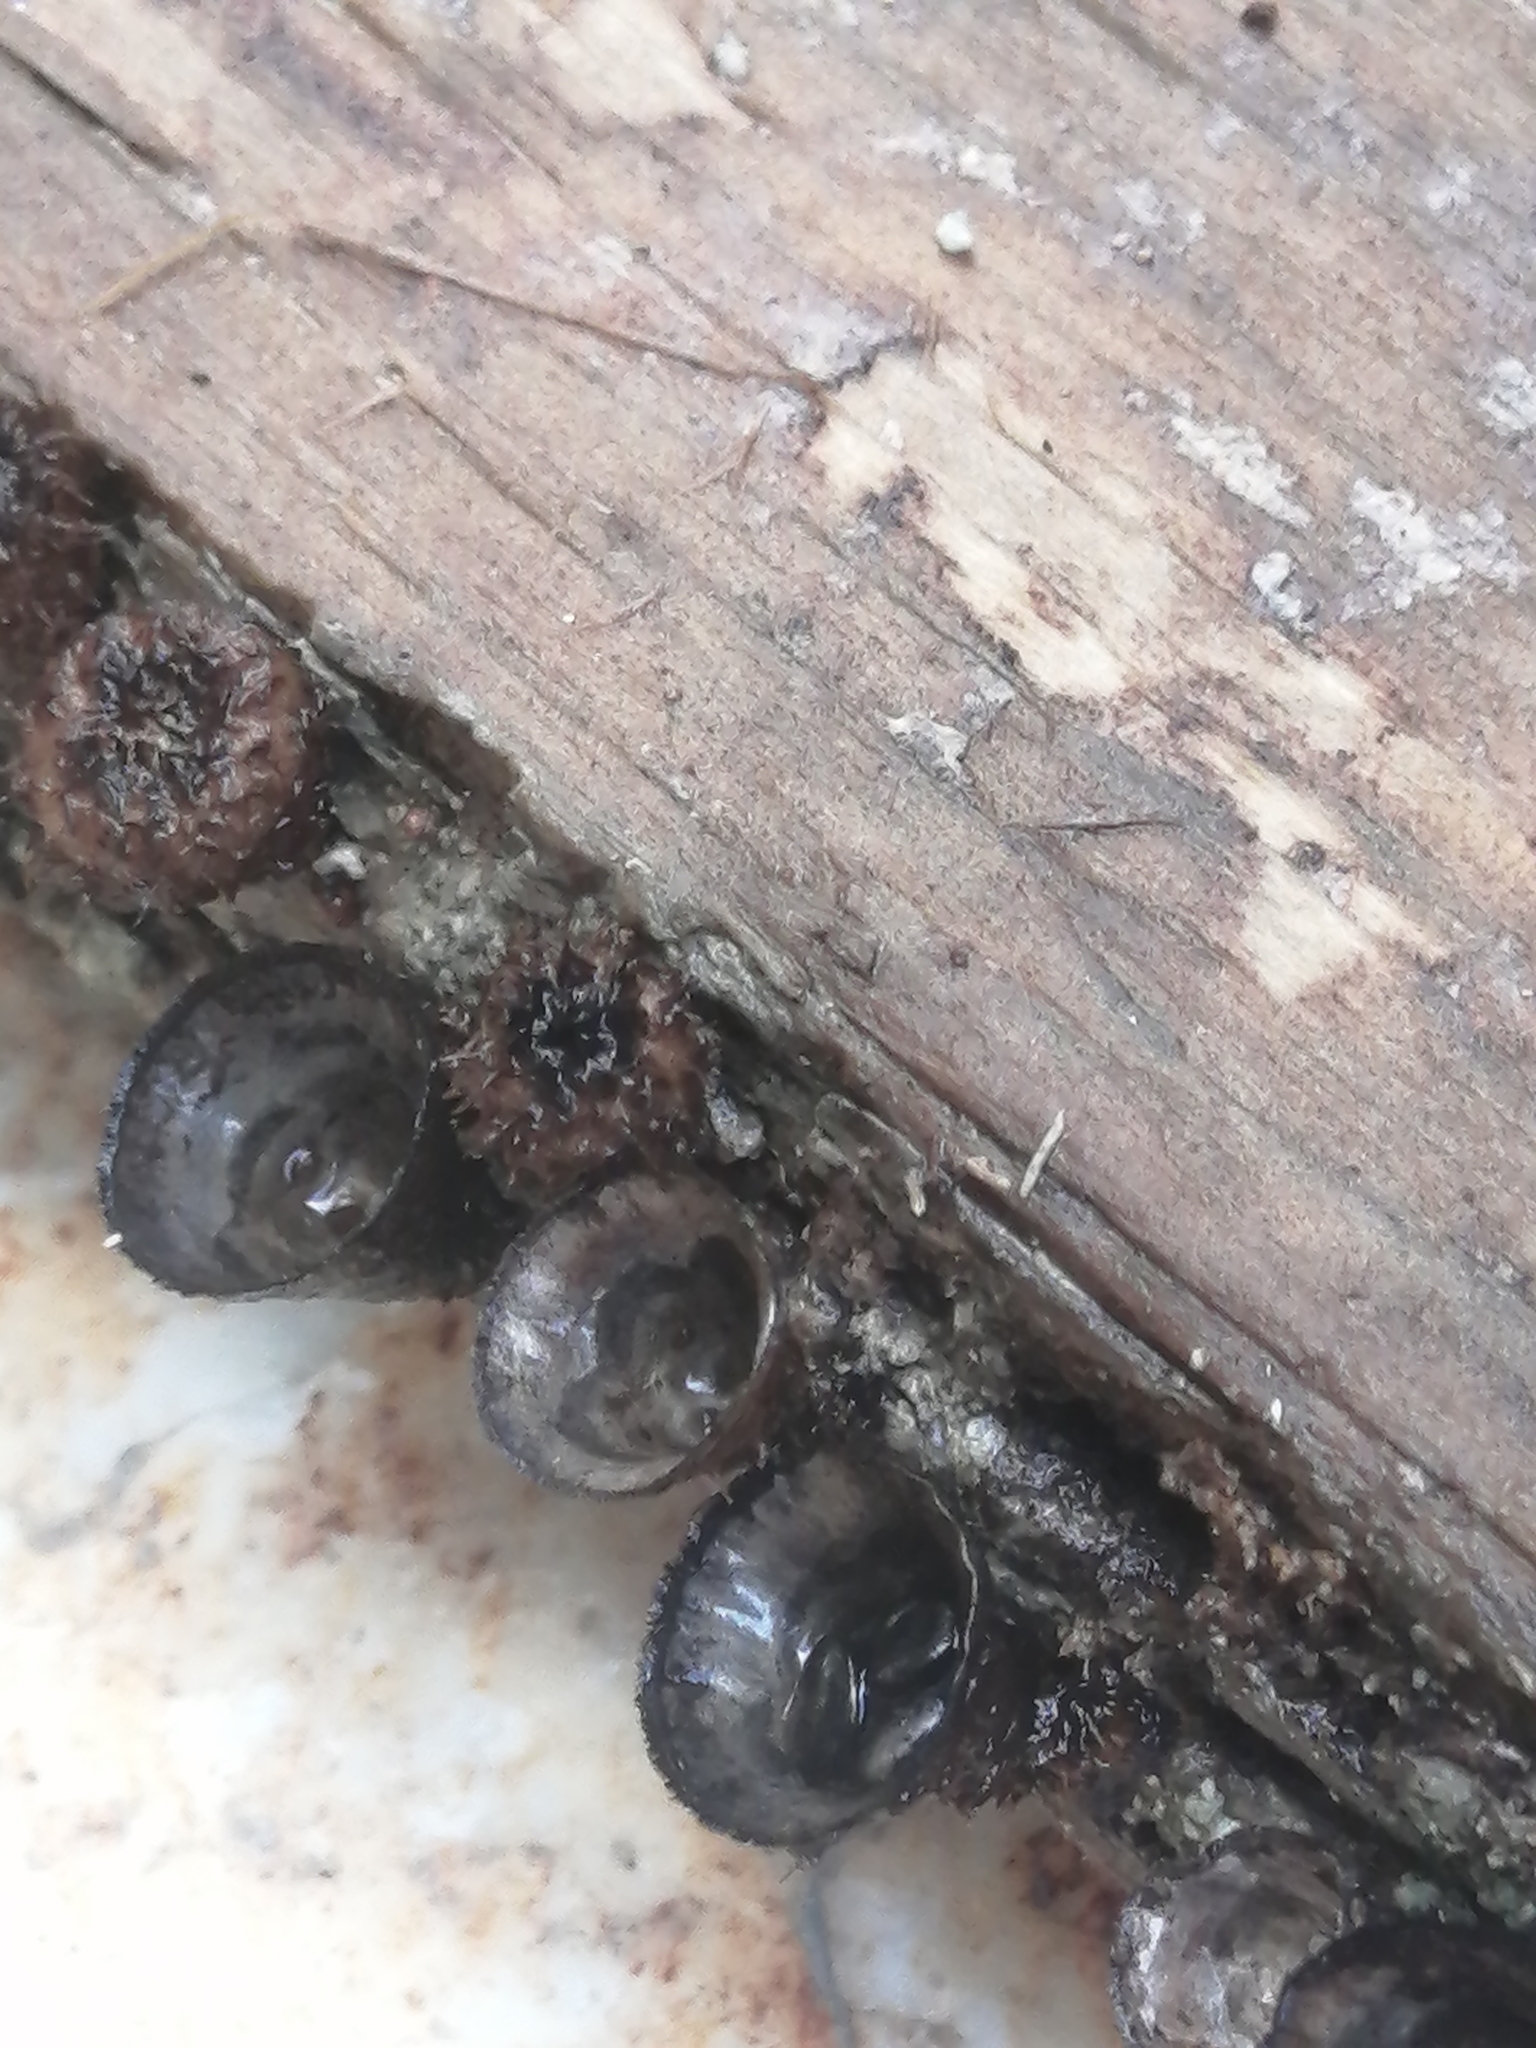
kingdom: Fungi
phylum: Basidiomycota
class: Agaricomycetes
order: Agaricales
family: Agaricaceae
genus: Cyathus
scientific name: Cyathus stercoreus
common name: Dung bird's nest
